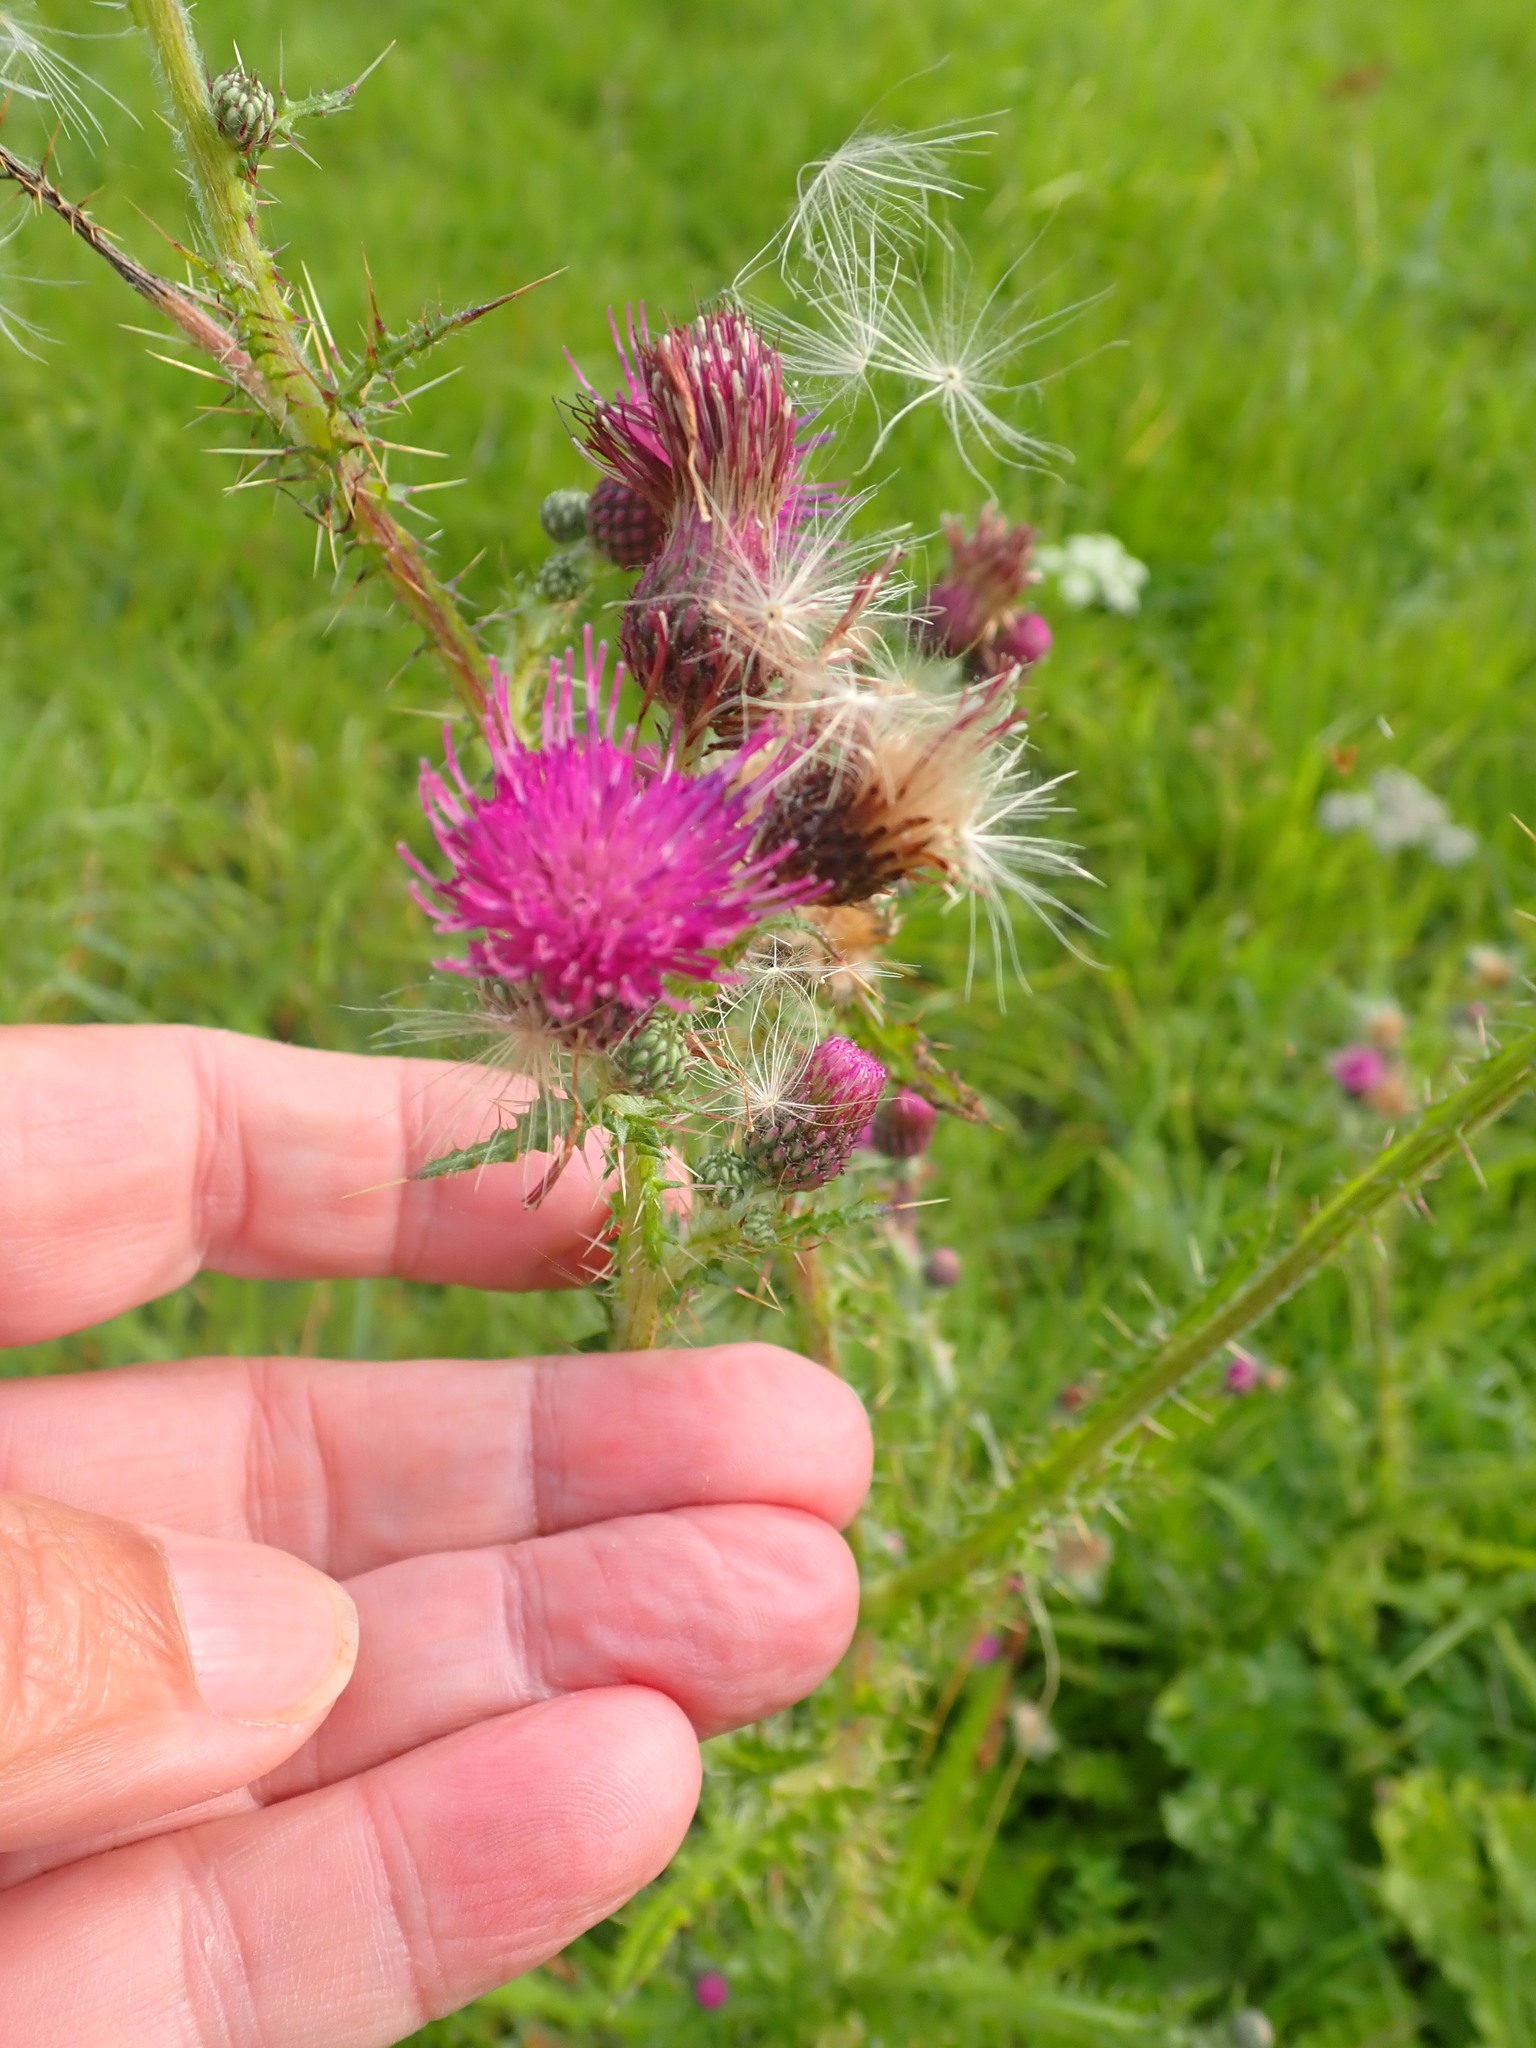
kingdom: Plantae
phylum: Tracheophyta
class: Magnoliopsida
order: Asterales
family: Asteraceae
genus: Cirsium
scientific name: Cirsium palustre
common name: Marsh thistle
